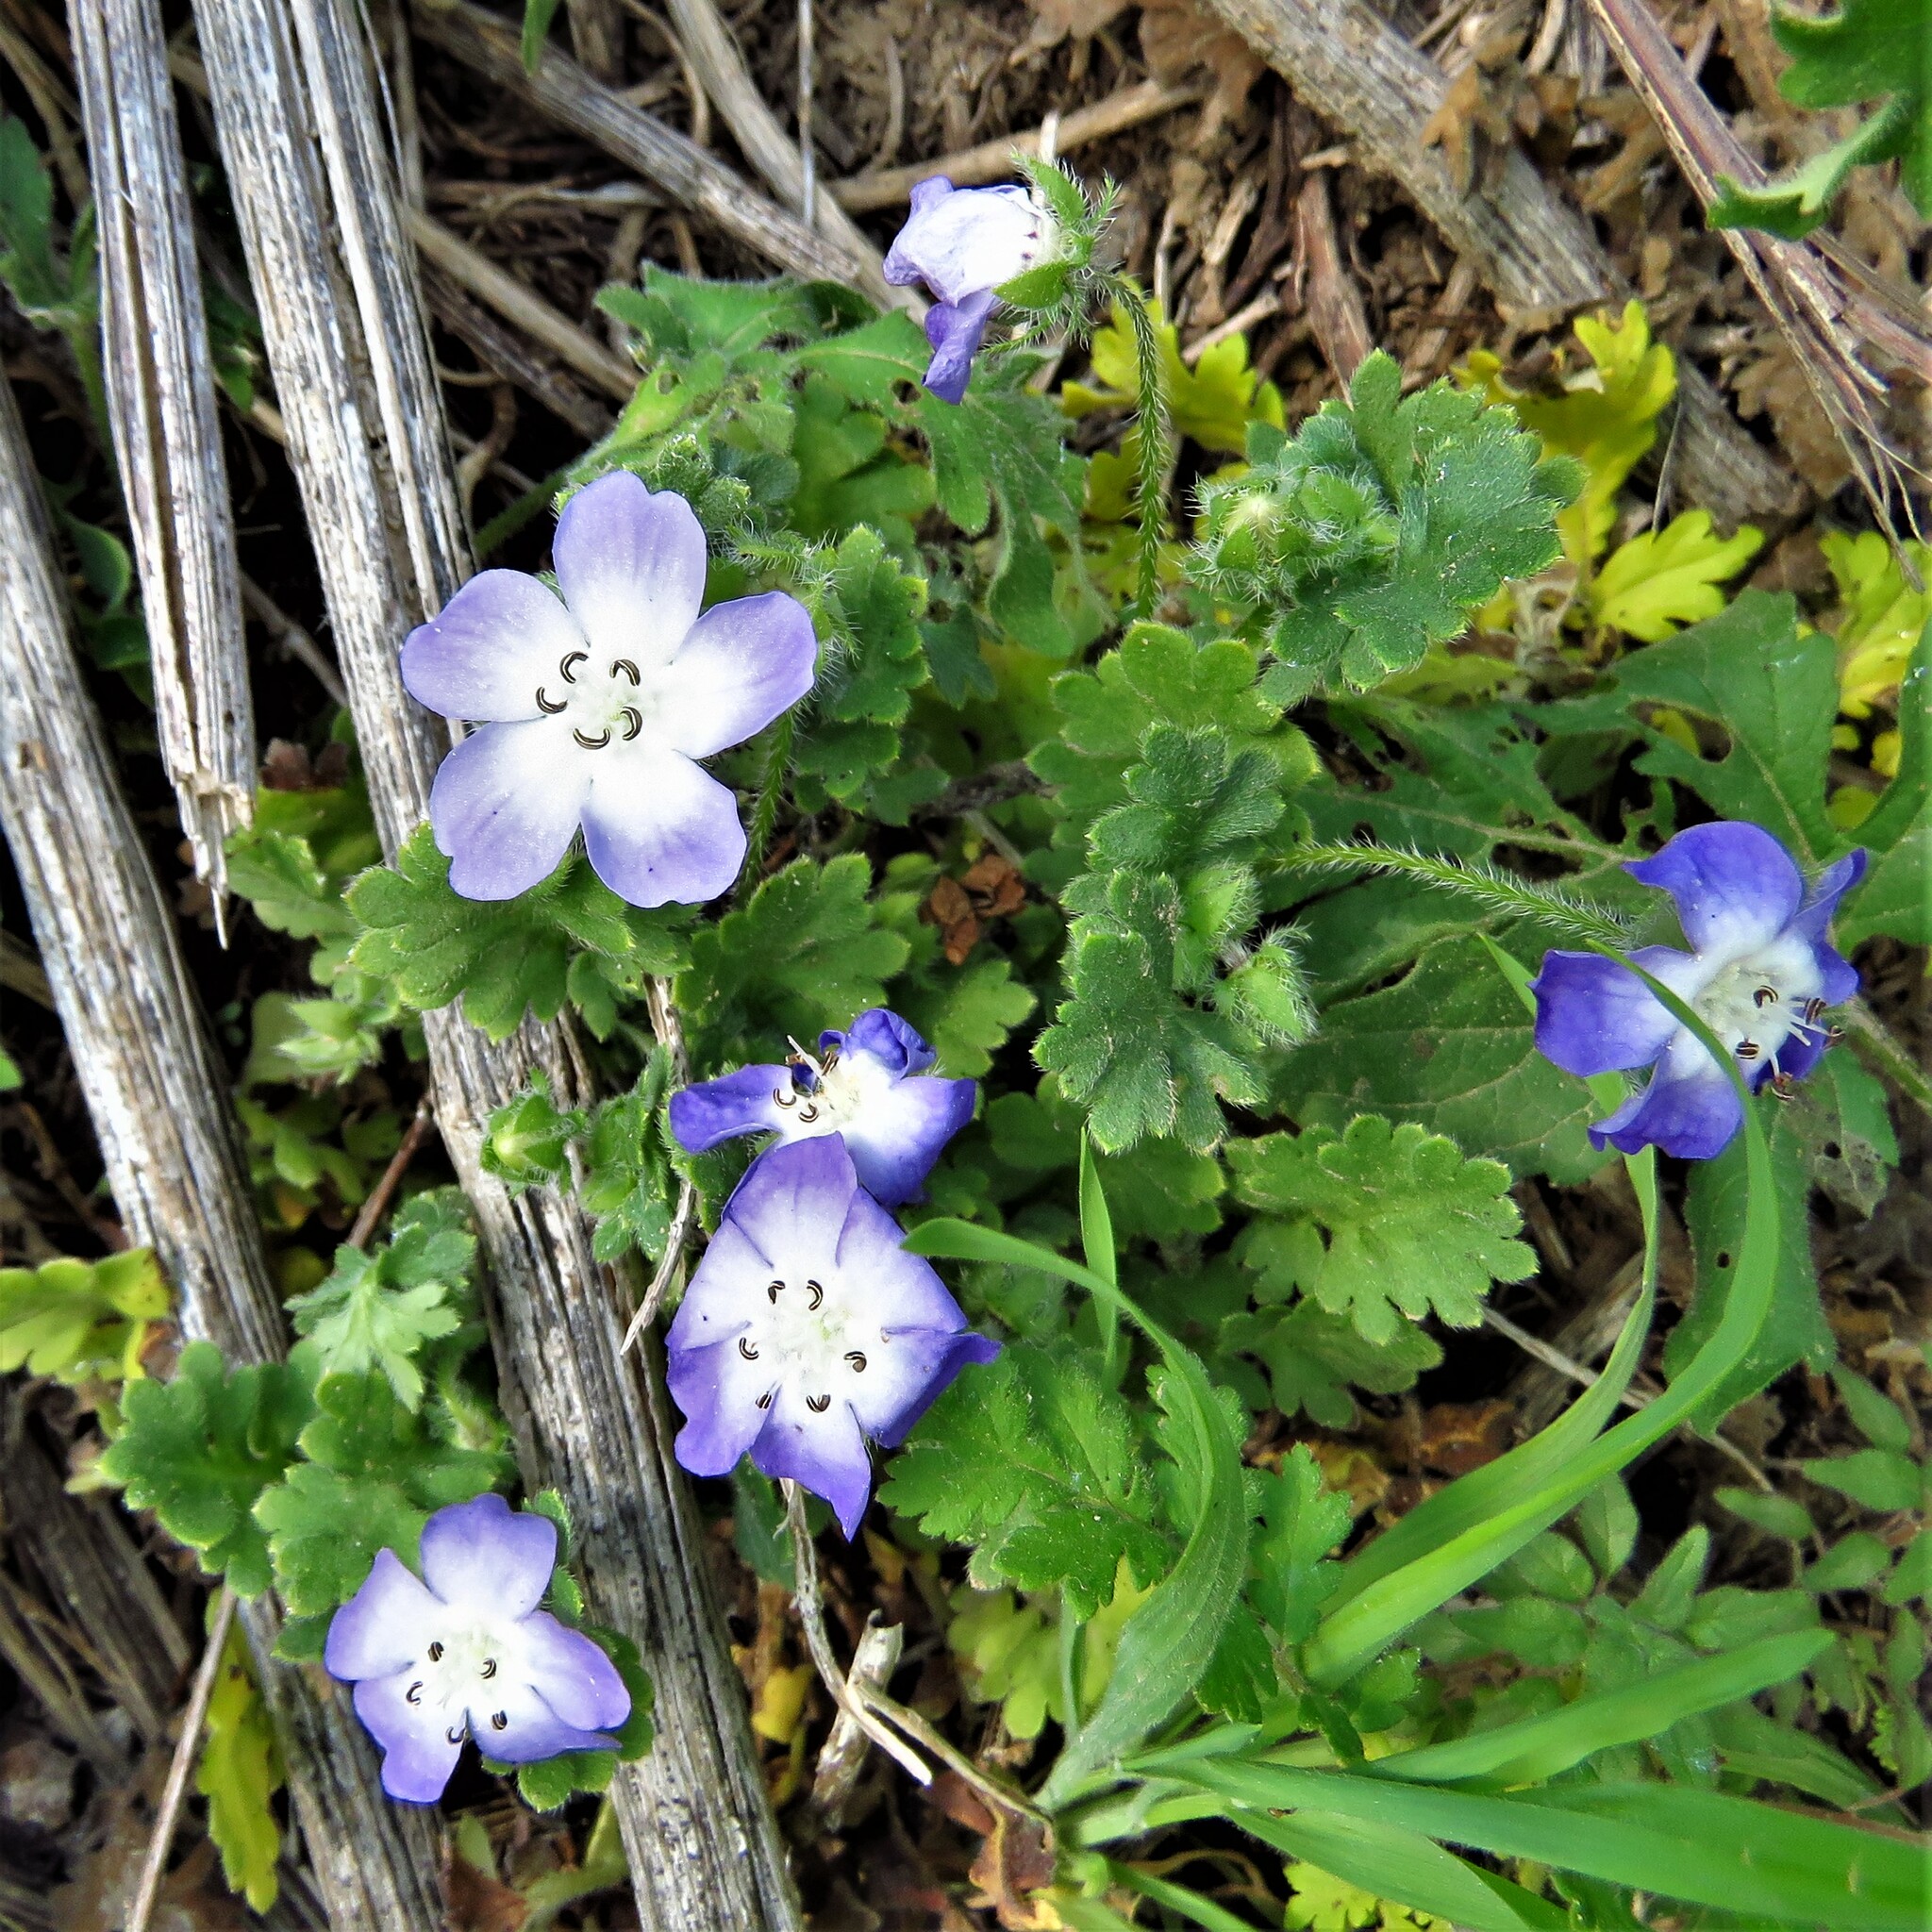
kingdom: Plantae
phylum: Tracheophyta
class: Magnoliopsida
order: Boraginales
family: Hydrophyllaceae
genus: Nemophila
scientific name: Nemophila sayersensis
